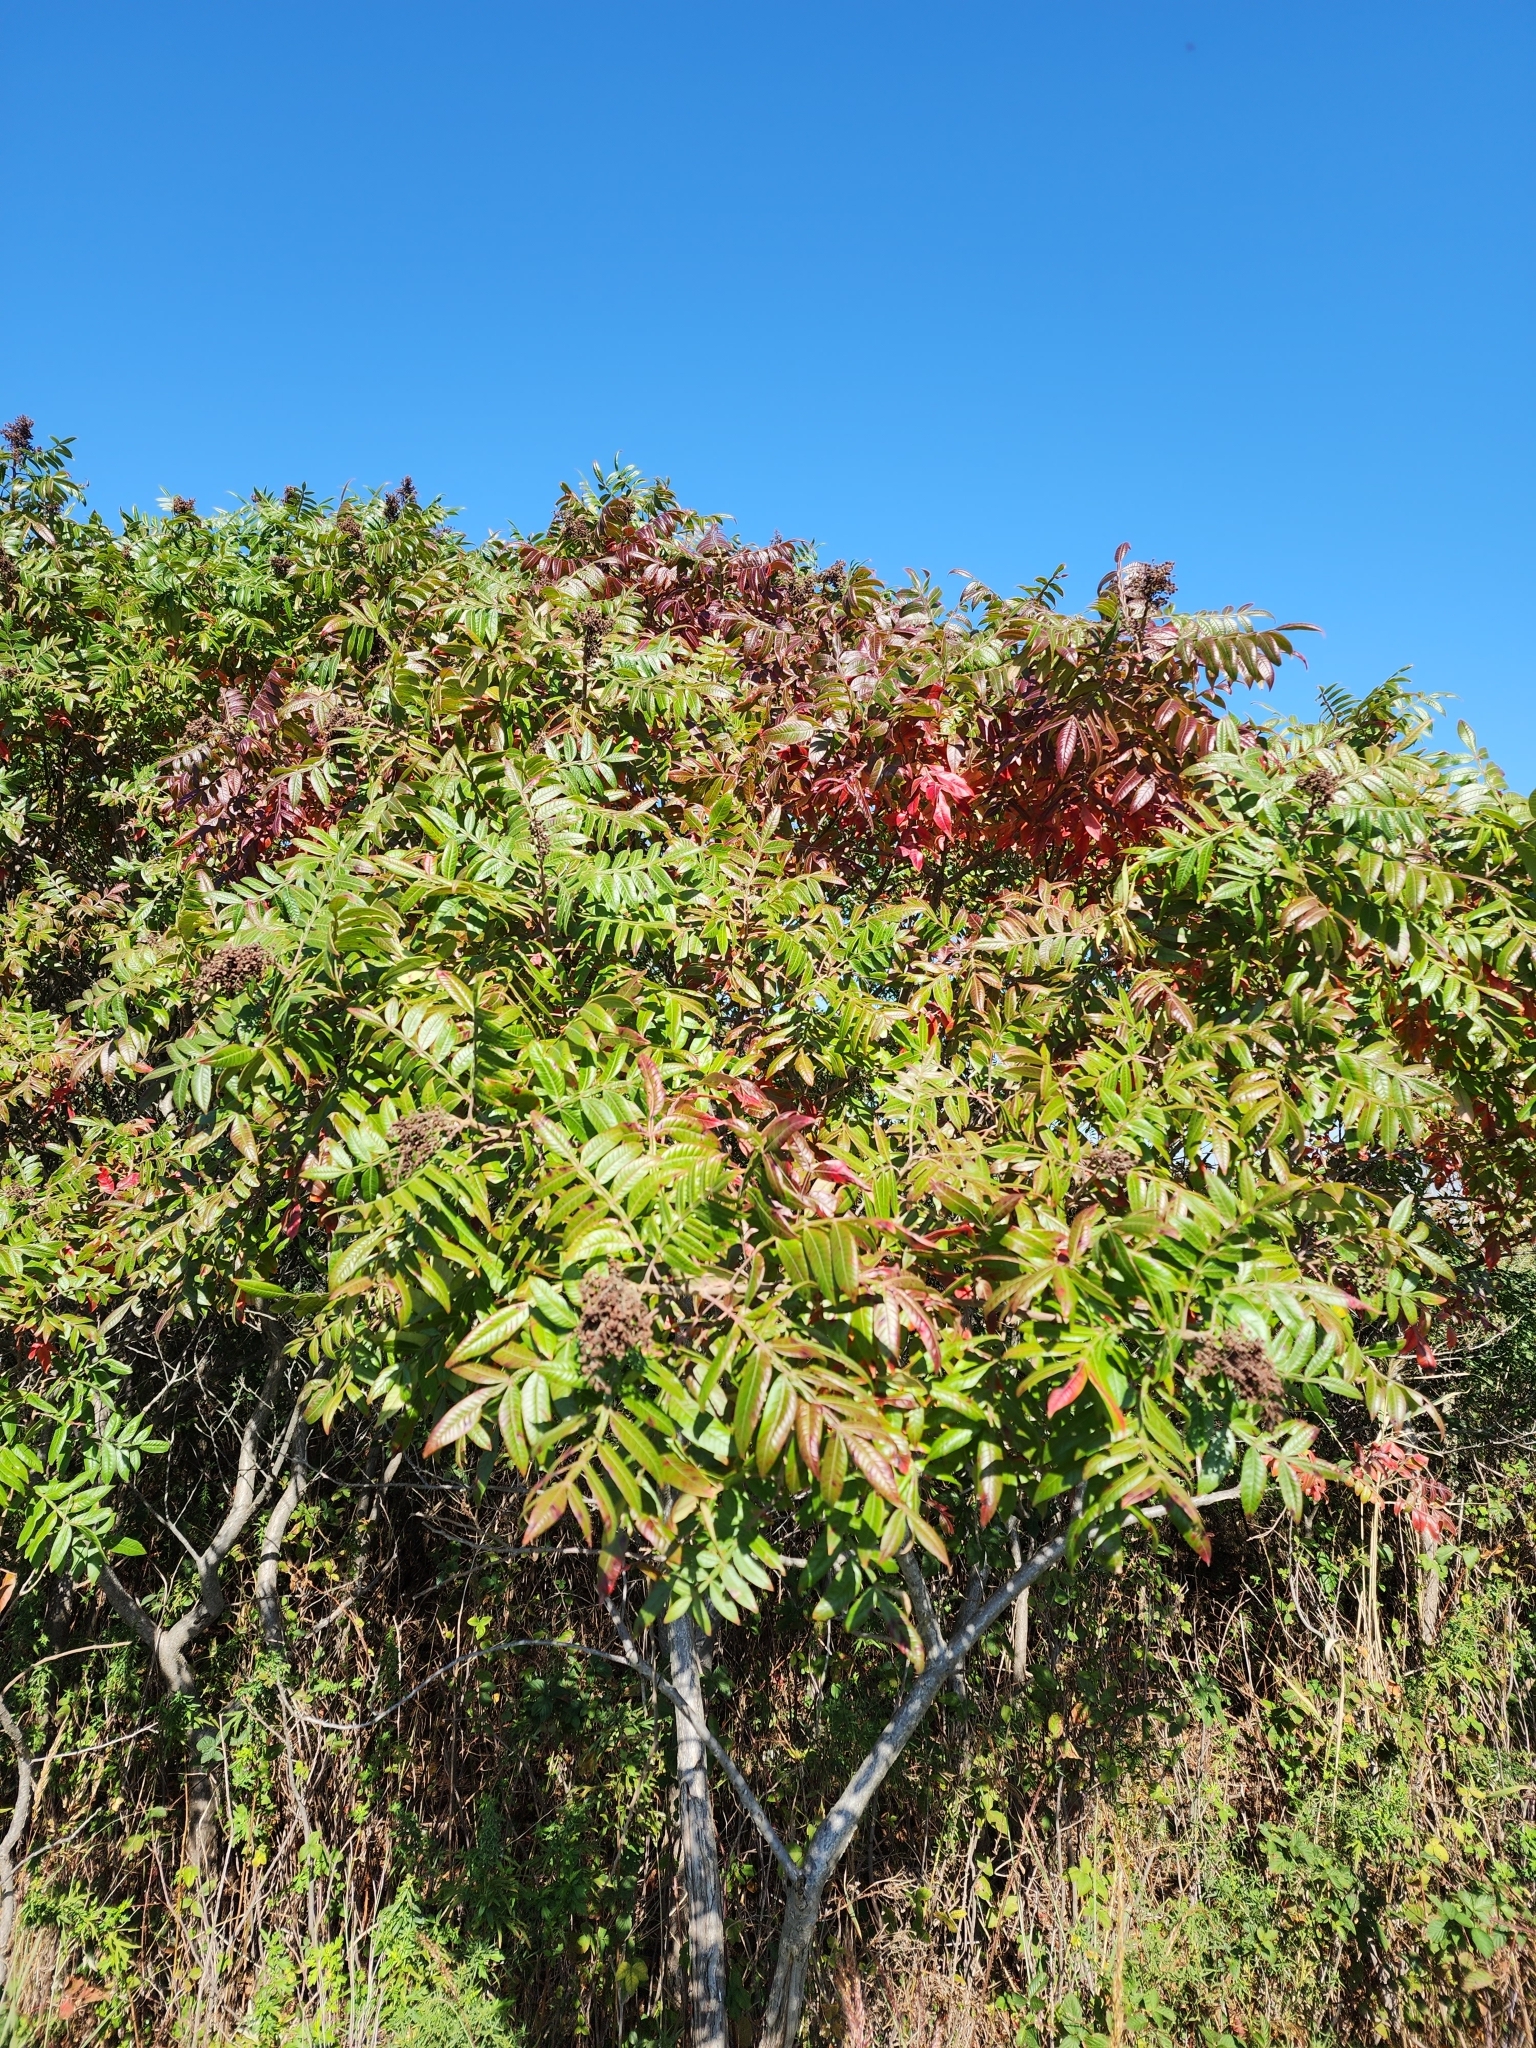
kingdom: Plantae
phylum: Tracheophyta
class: Magnoliopsida
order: Sapindales
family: Anacardiaceae
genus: Rhus
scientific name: Rhus copallina
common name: Shining sumac
